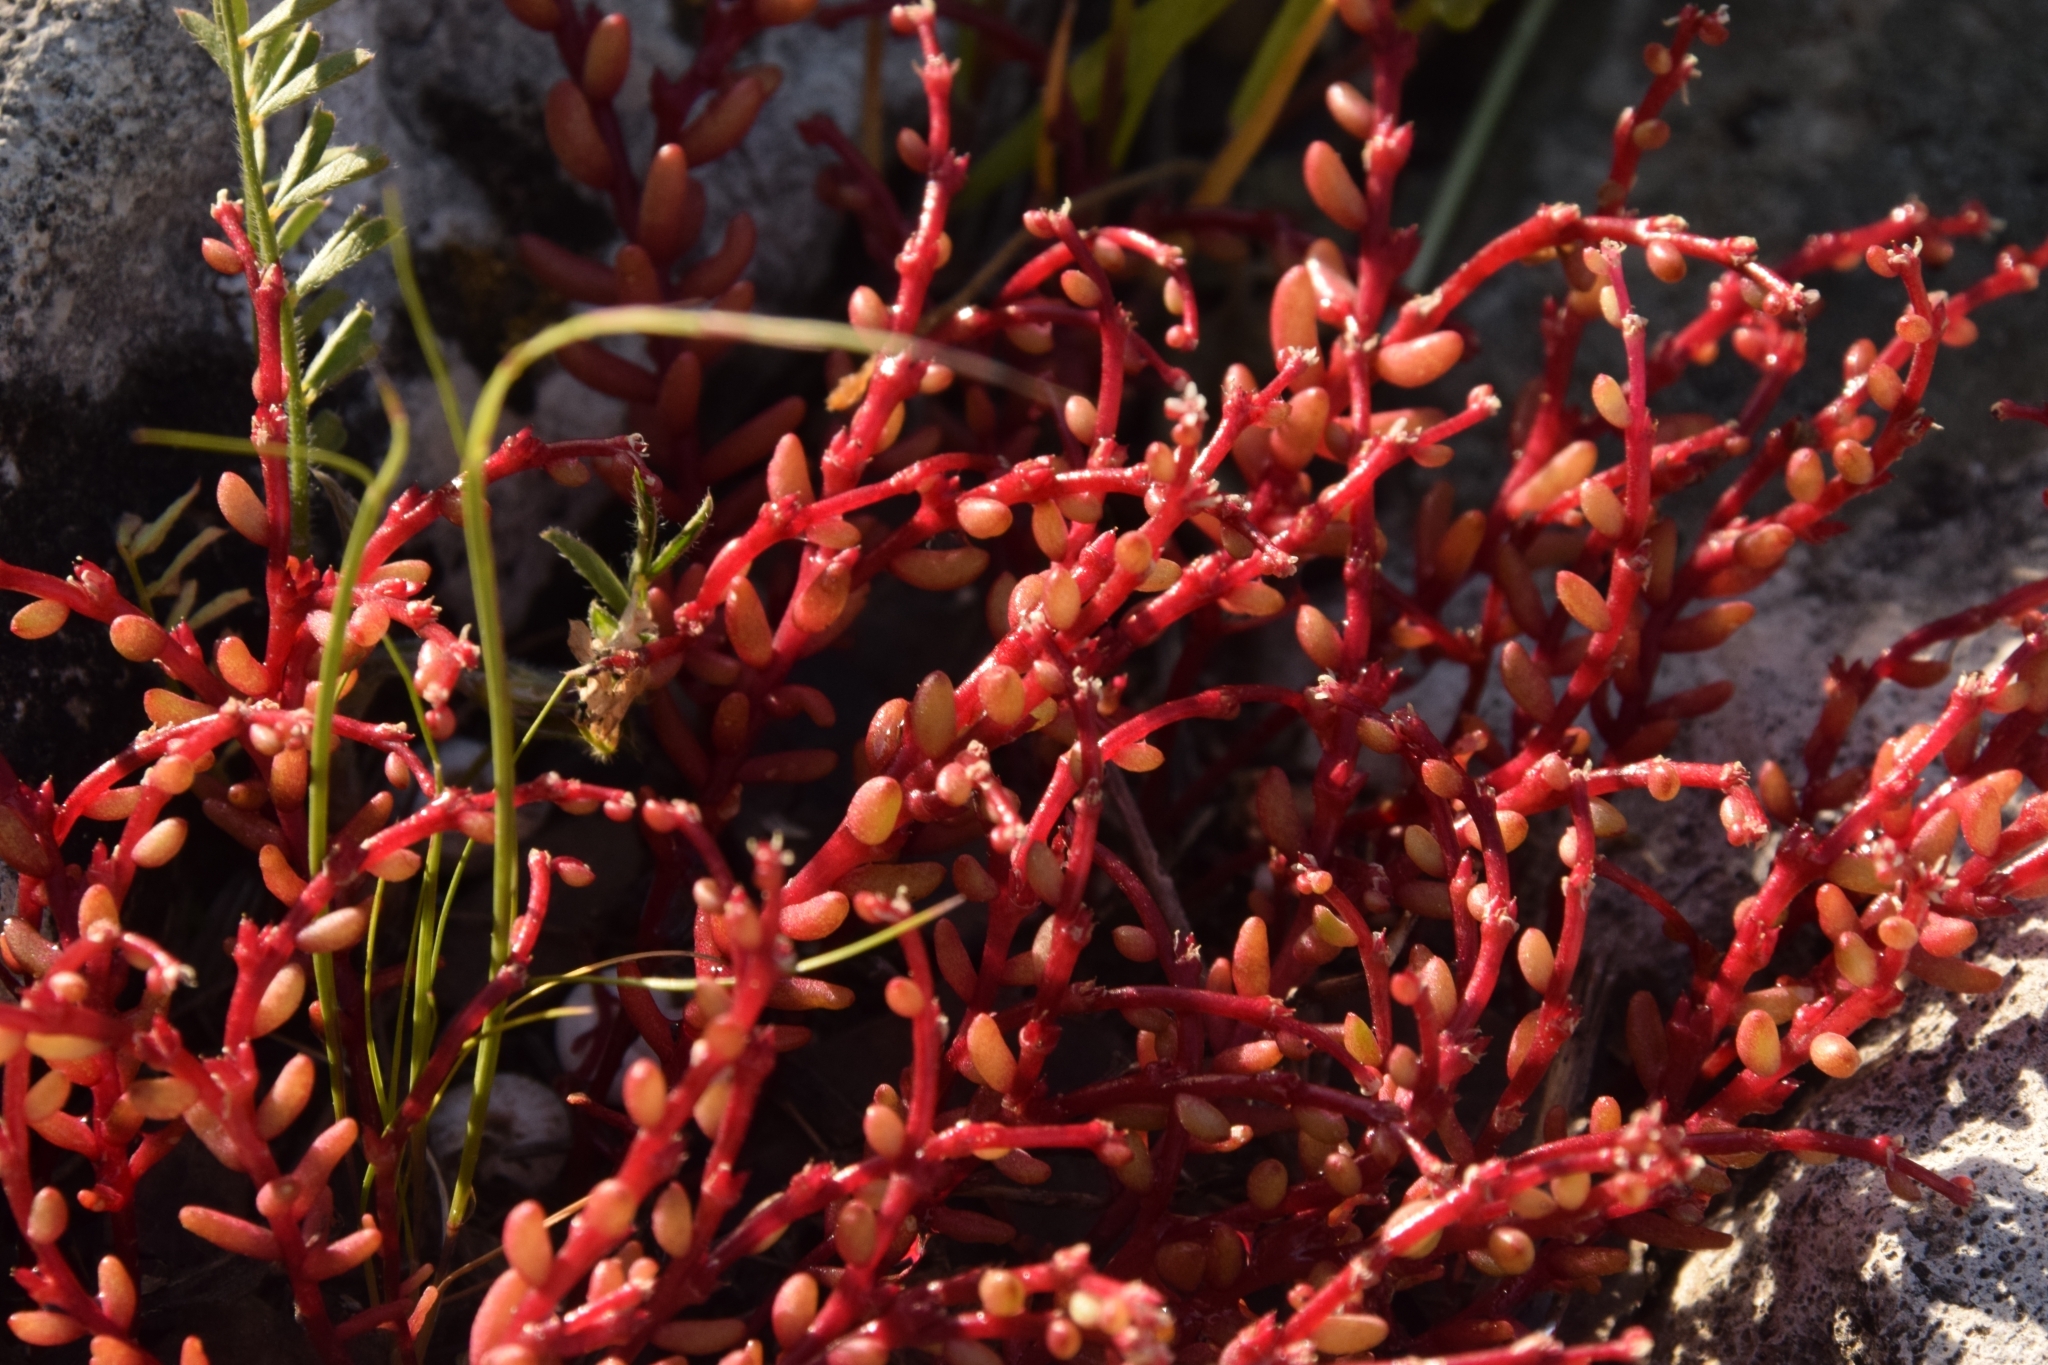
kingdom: Plantae
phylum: Tracheophyta
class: Magnoliopsida
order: Saxifragales
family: Crassulaceae
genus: Sedum
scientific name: Sedum microcarpum
